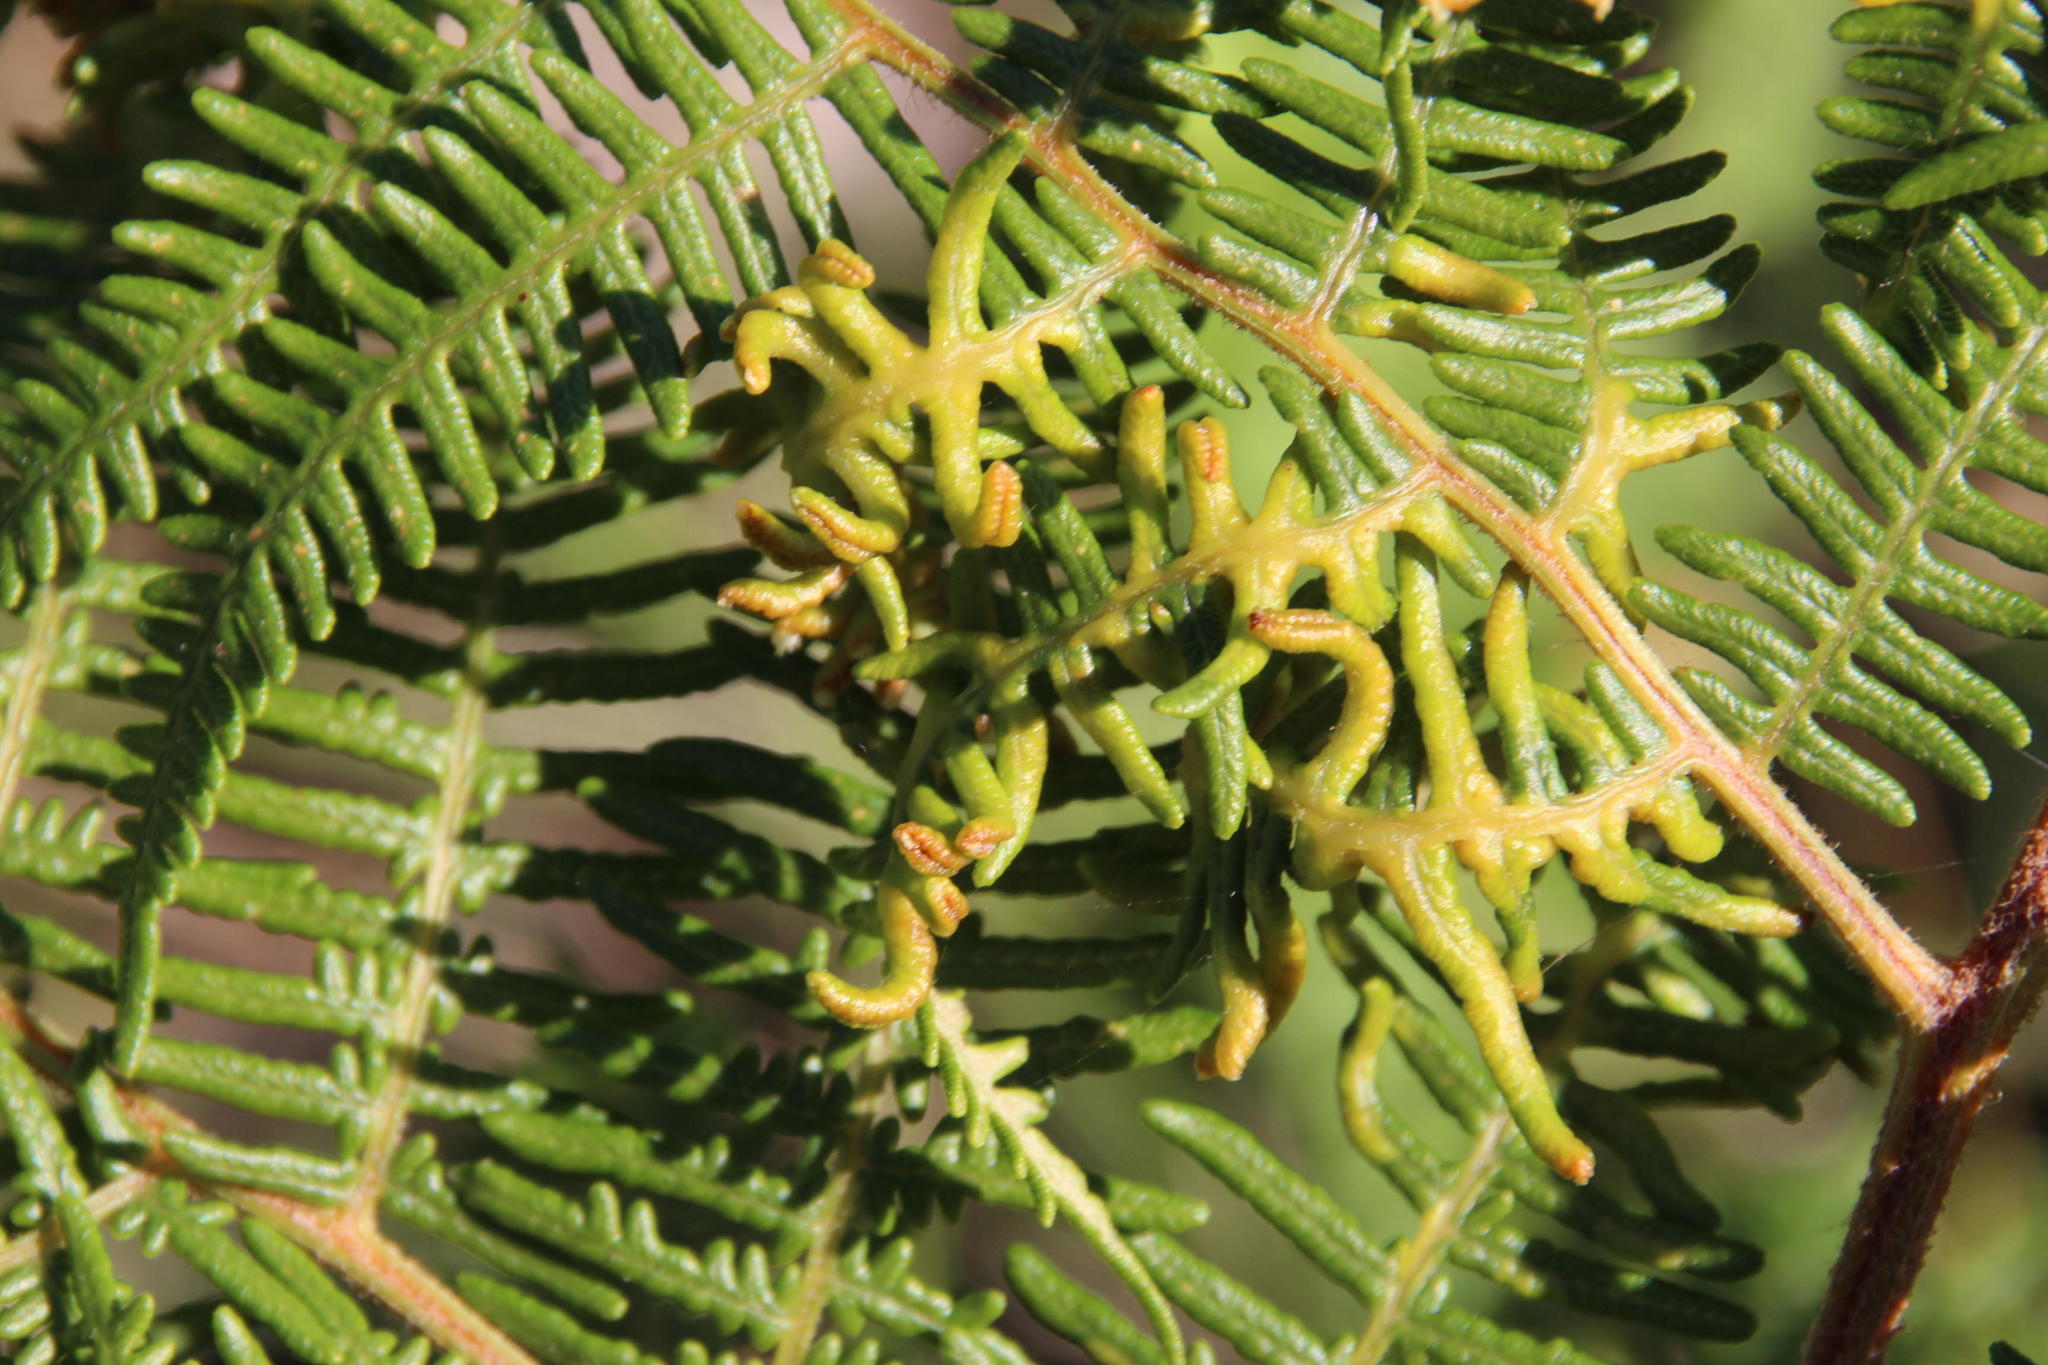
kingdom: Plantae
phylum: Tracheophyta
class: Polypodiopsida
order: Polypodiales
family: Dennstaedtiaceae
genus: Pteridium
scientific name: Pteridium aquilinum
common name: Bracken
